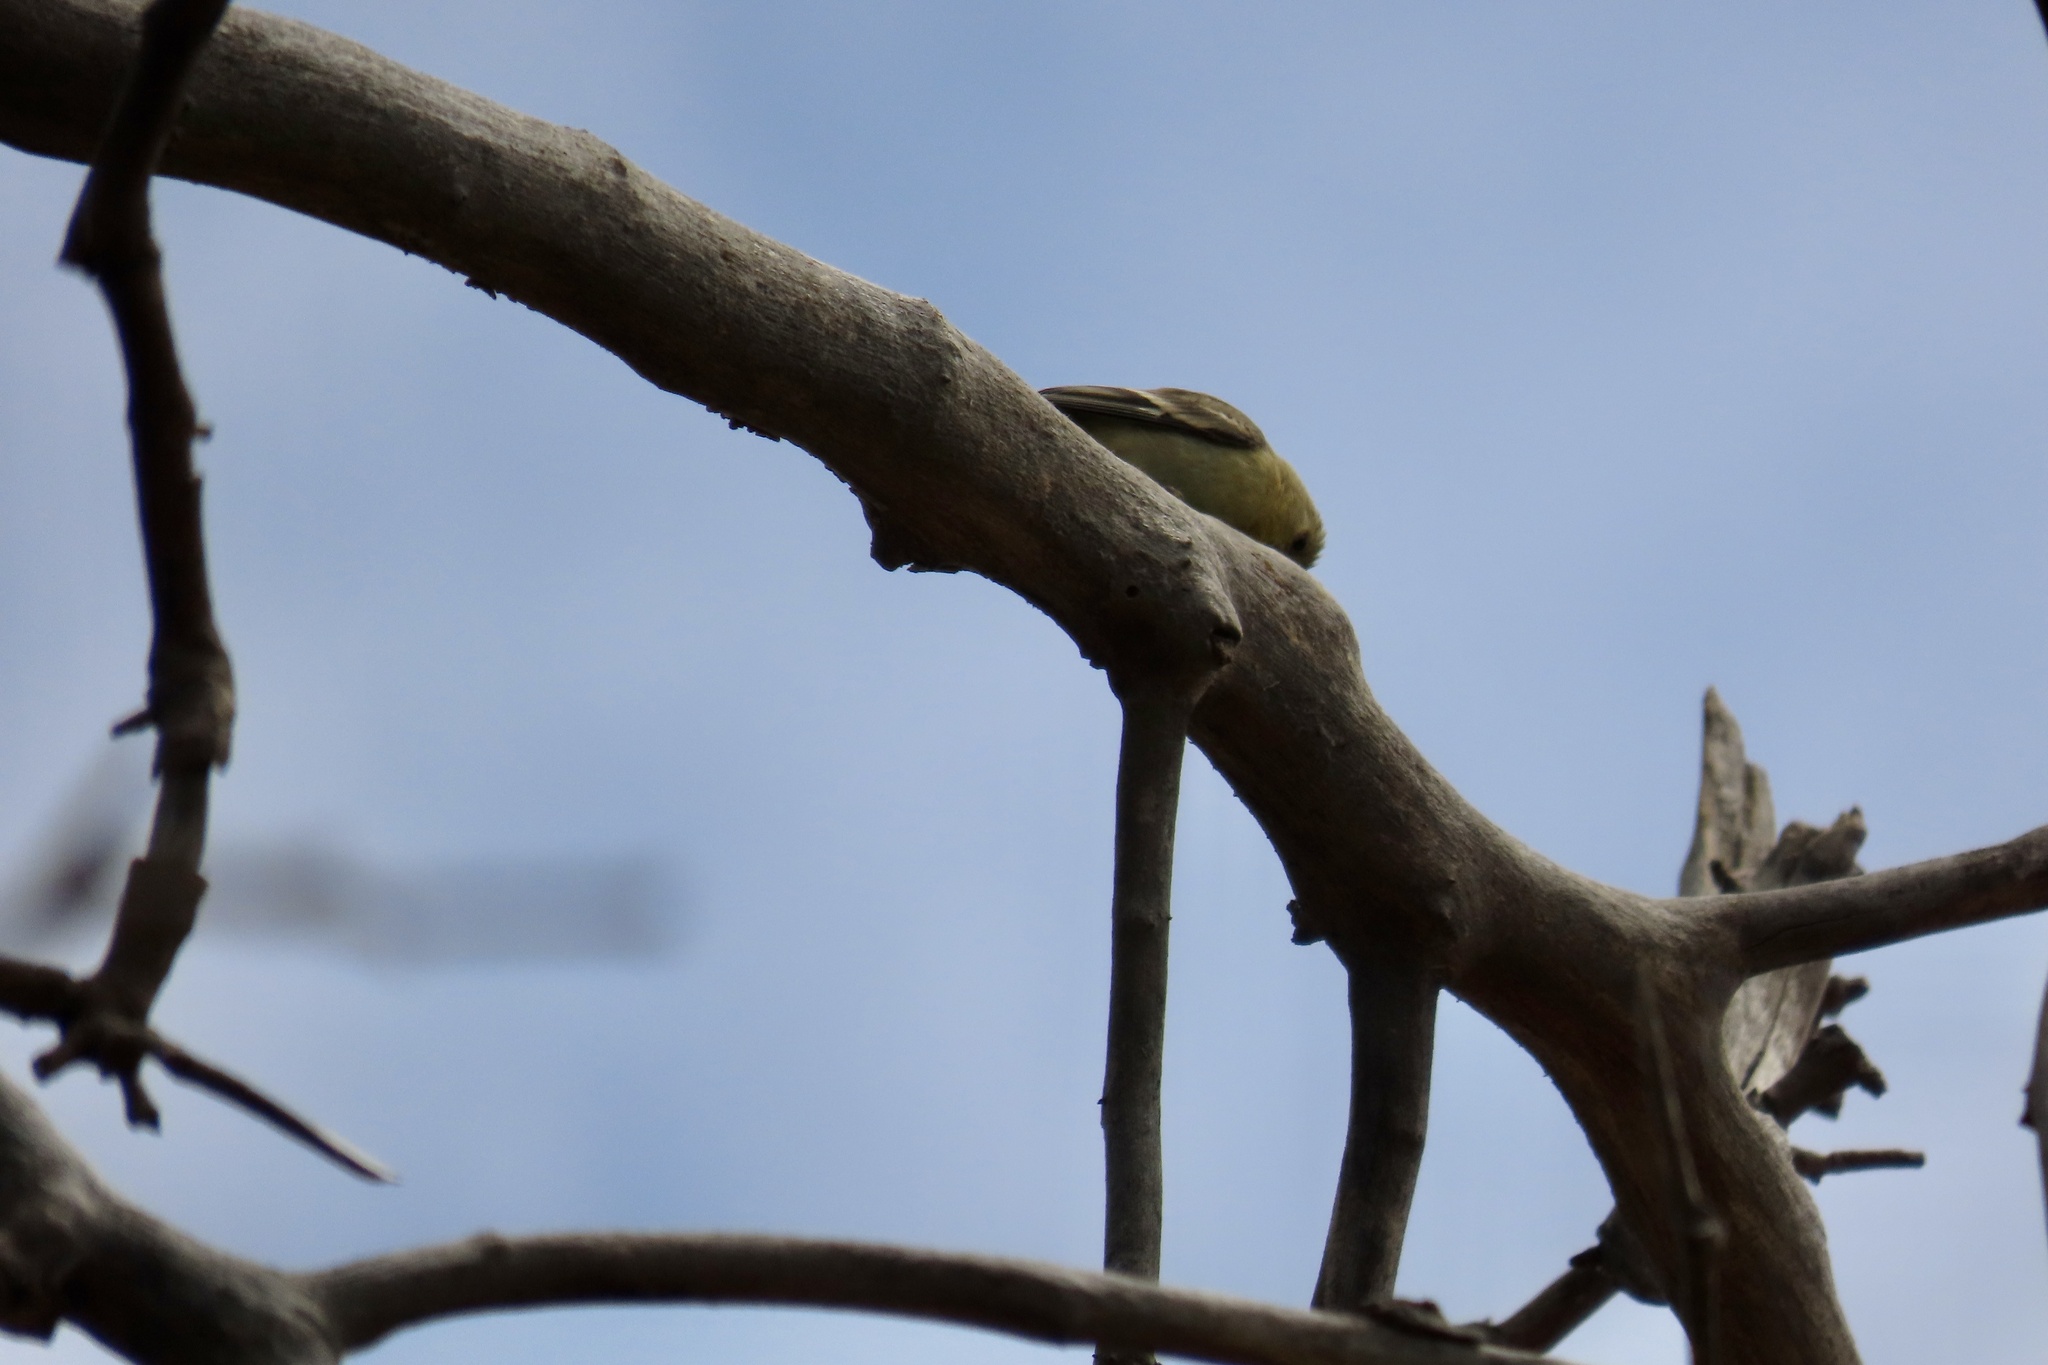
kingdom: Animalia
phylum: Chordata
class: Aves
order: Passeriformes
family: Fringillidae
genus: Spinus
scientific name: Spinus psaltria
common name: Lesser goldfinch
